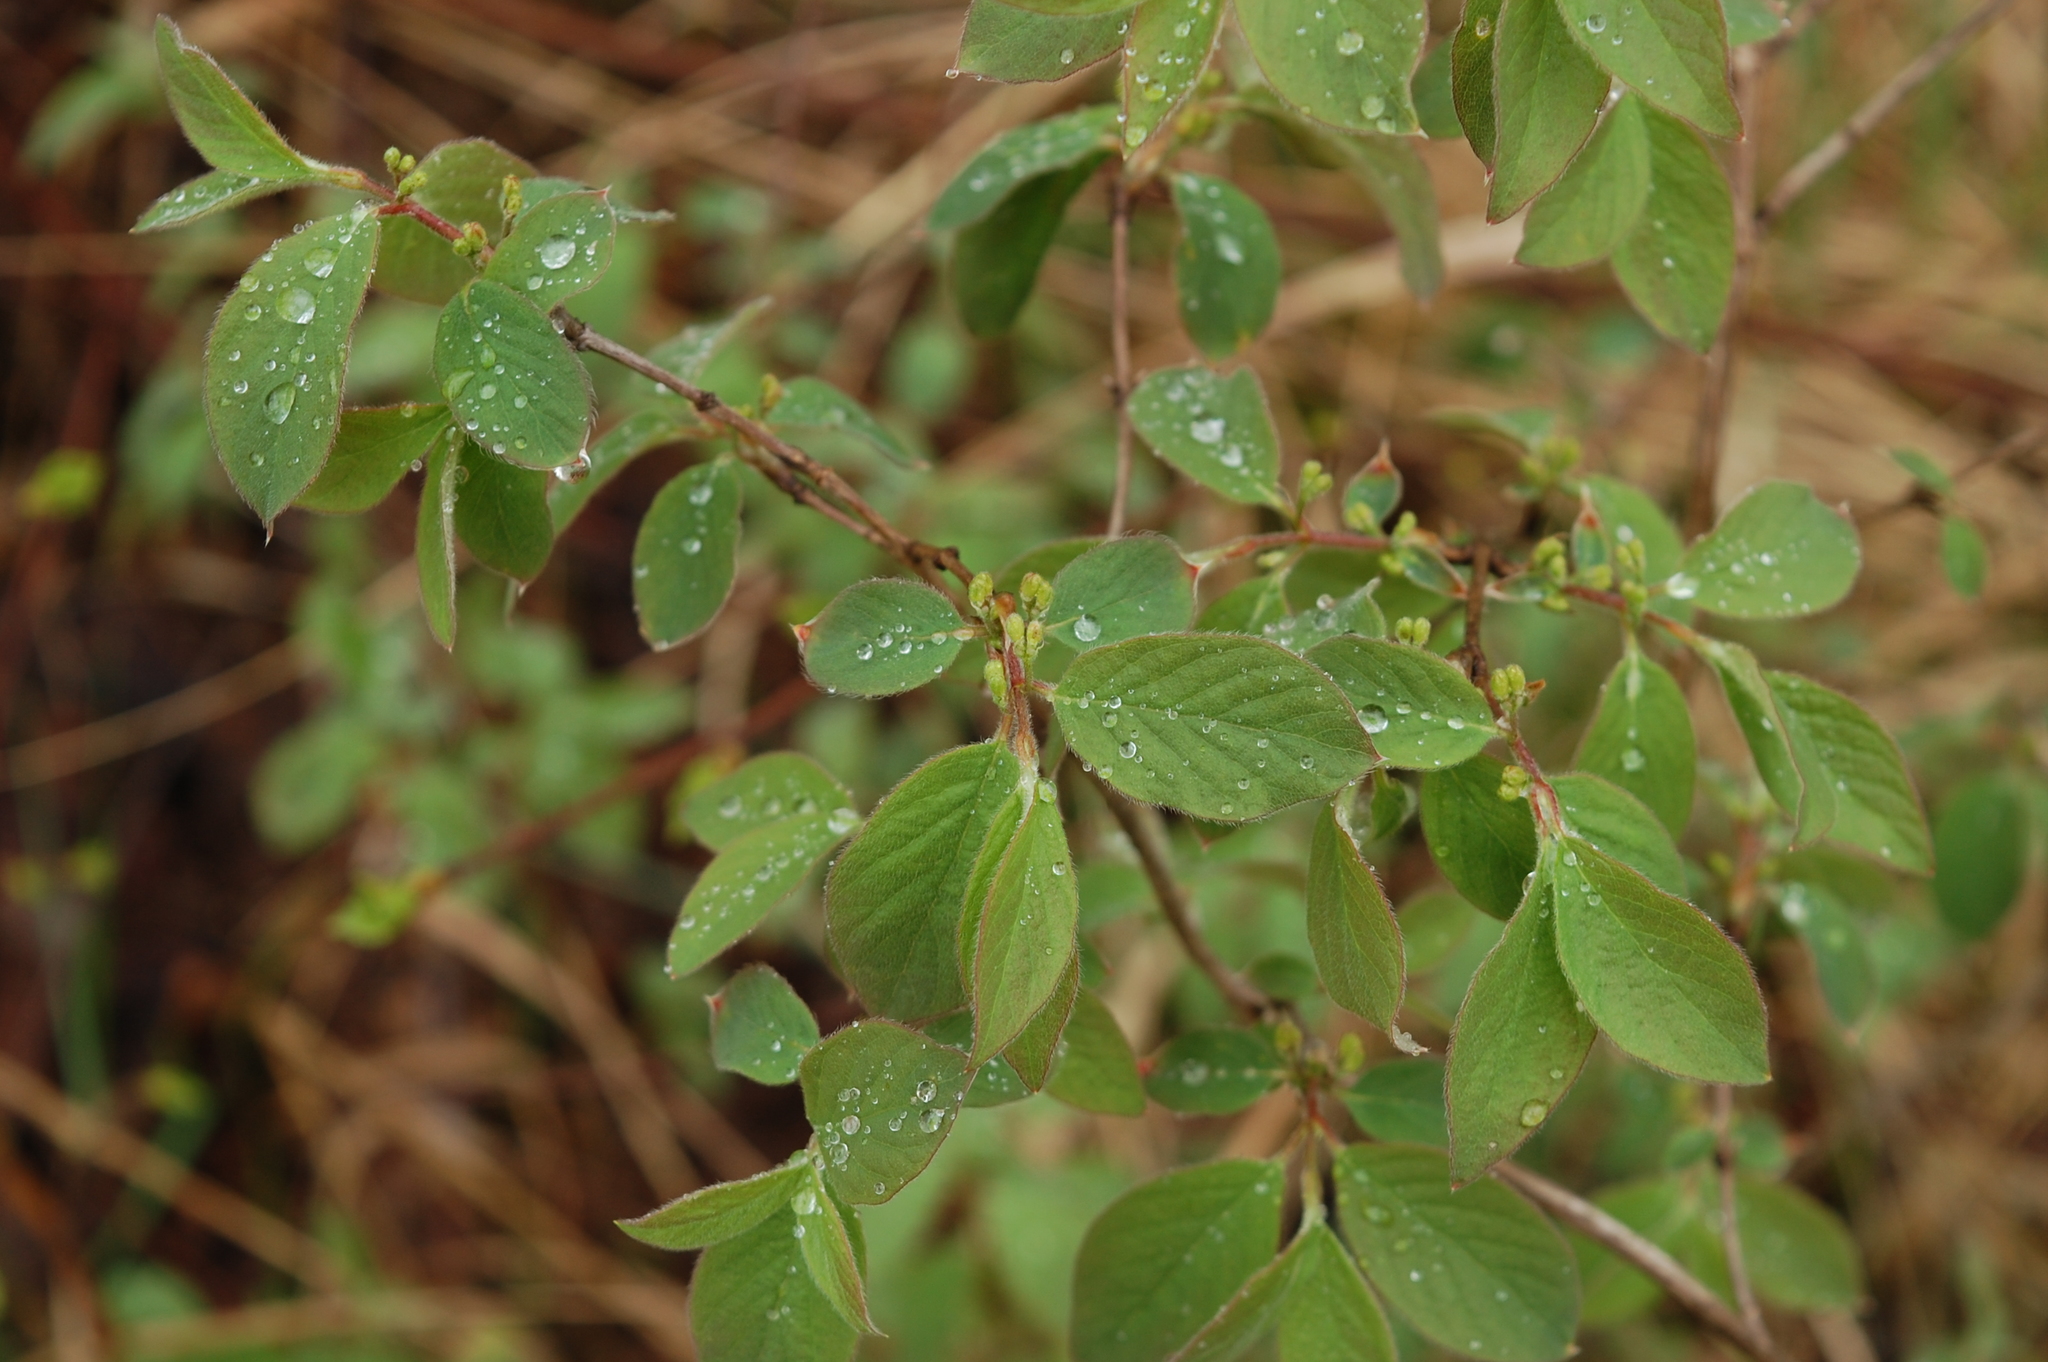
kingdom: Plantae
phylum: Tracheophyta
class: Magnoliopsida
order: Dipsacales
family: Caprifoliaceae
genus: Lonicera
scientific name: Lonicera xylosteum
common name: Fly honeysuckle
